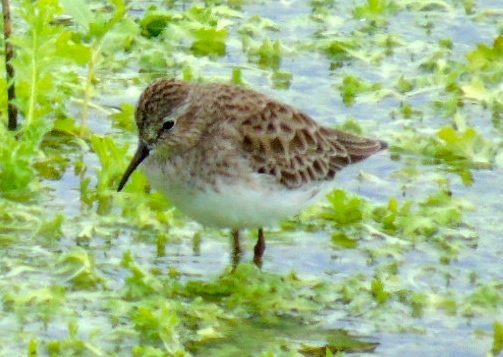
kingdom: Animalia
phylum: Chordata
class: Aves
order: Charadriiformes
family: Scolopacidae
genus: Calidris
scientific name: Calidris minutilla
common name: Least sandpiper
